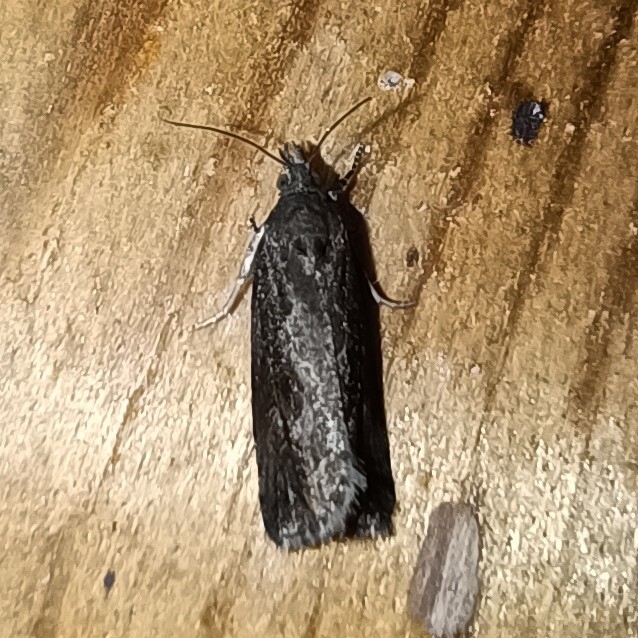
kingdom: Animalia
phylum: Arthropoda
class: Insecta
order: Lepidoptera
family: Tortricidae
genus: Endothenia
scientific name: Endothenia quadrimaculana
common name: Tortricid moth
